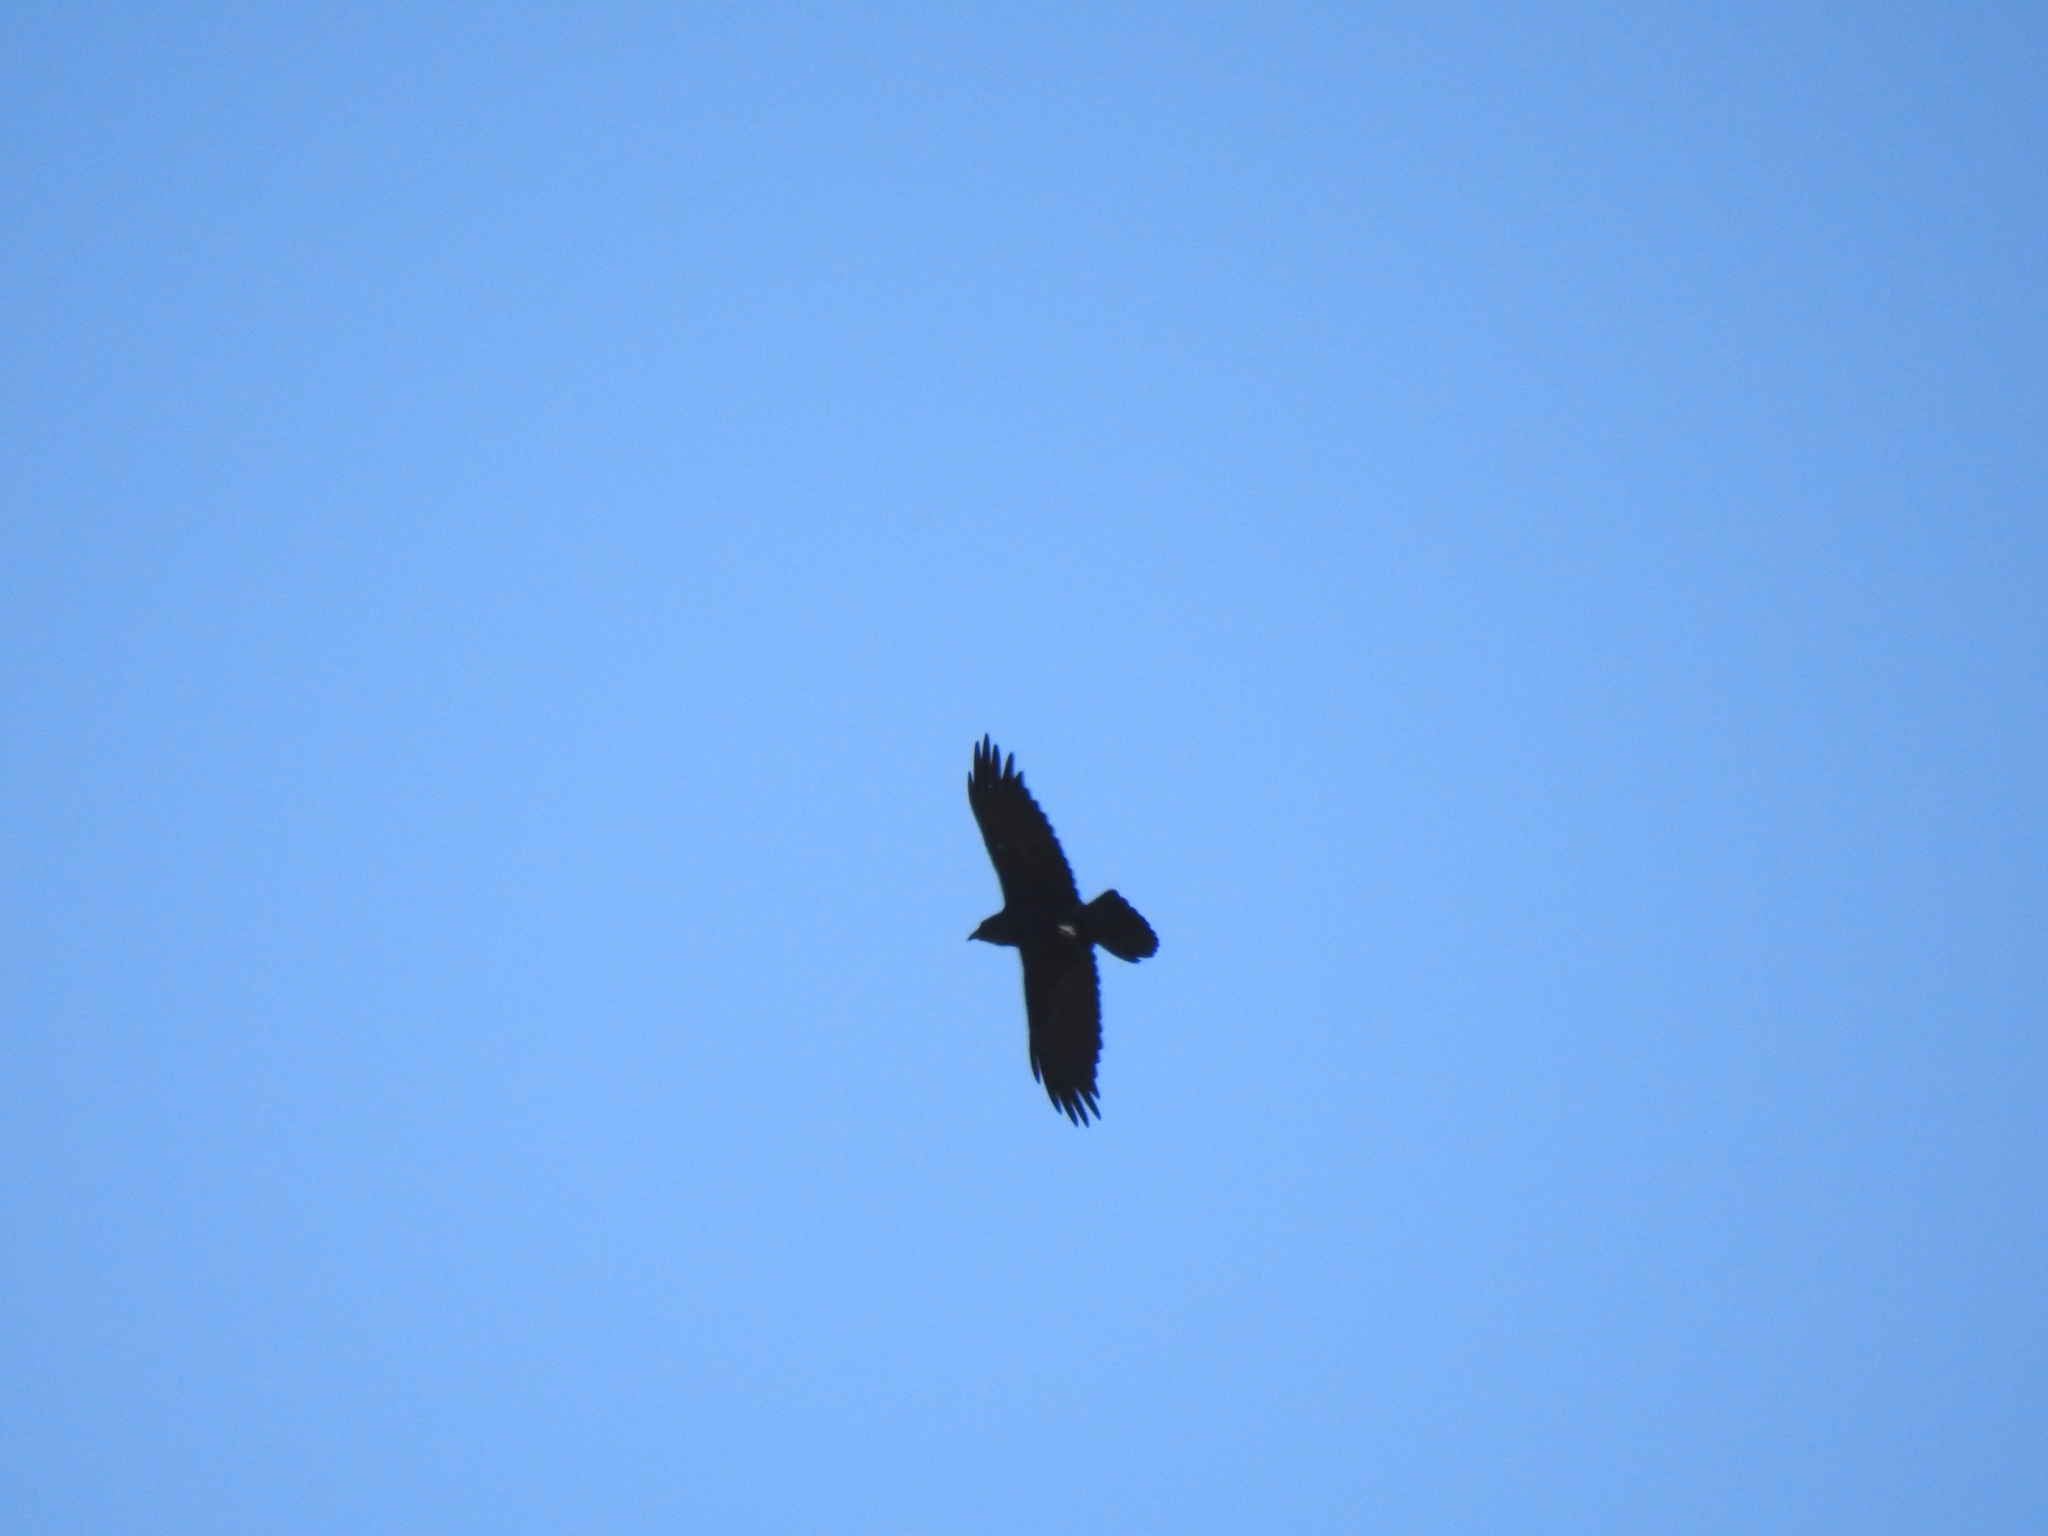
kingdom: Animalia
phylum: Chordata
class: Aves
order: Passeriformes
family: Corvidae
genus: Corvus
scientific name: Corvus corax
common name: Common raven
